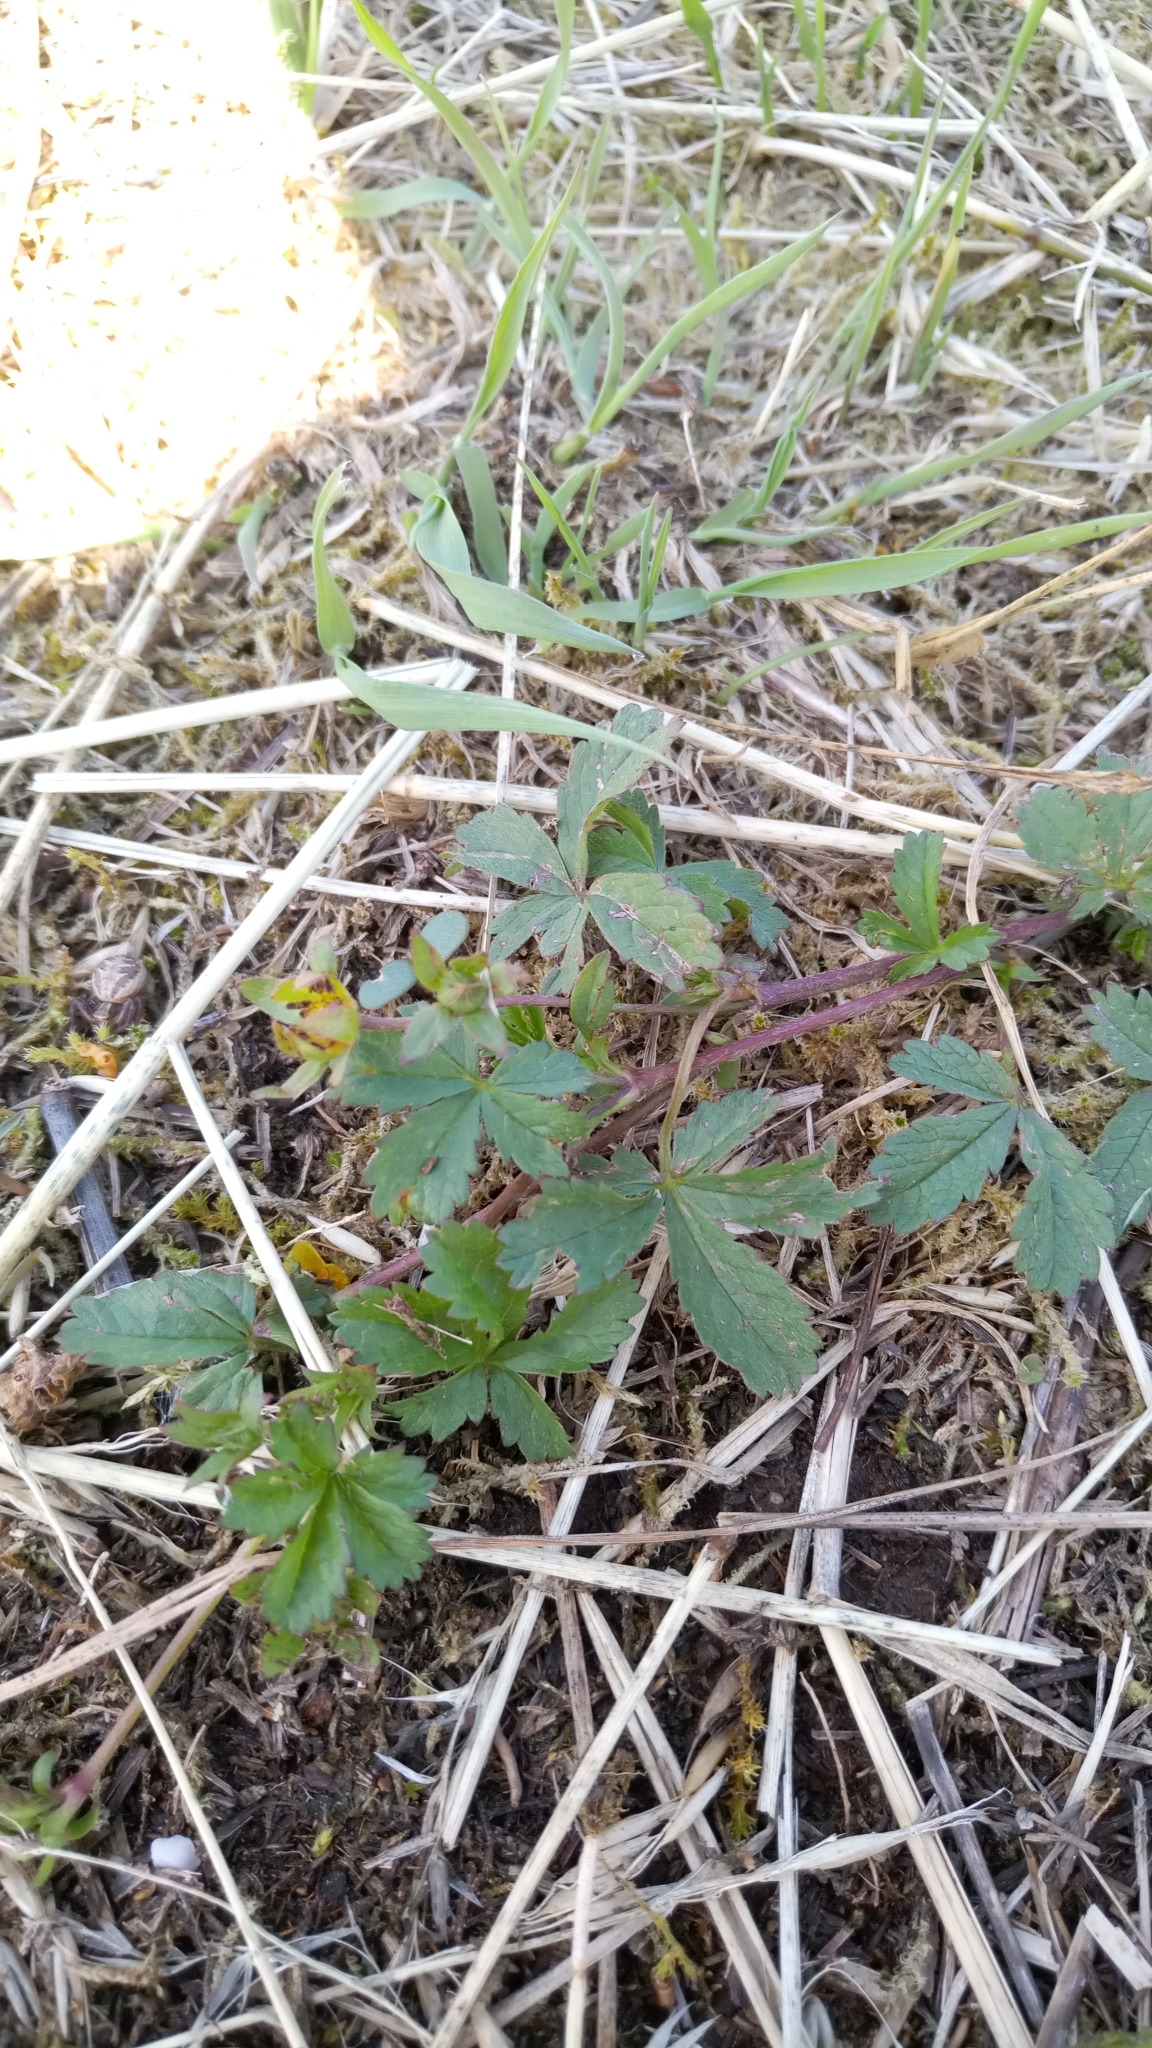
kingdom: Plantae
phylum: Tracheophyta
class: Magnoliopsida
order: Rosales
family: Rosaceae
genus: Potentilla
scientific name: Potentilla reptans
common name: Creeping cinquefoil
